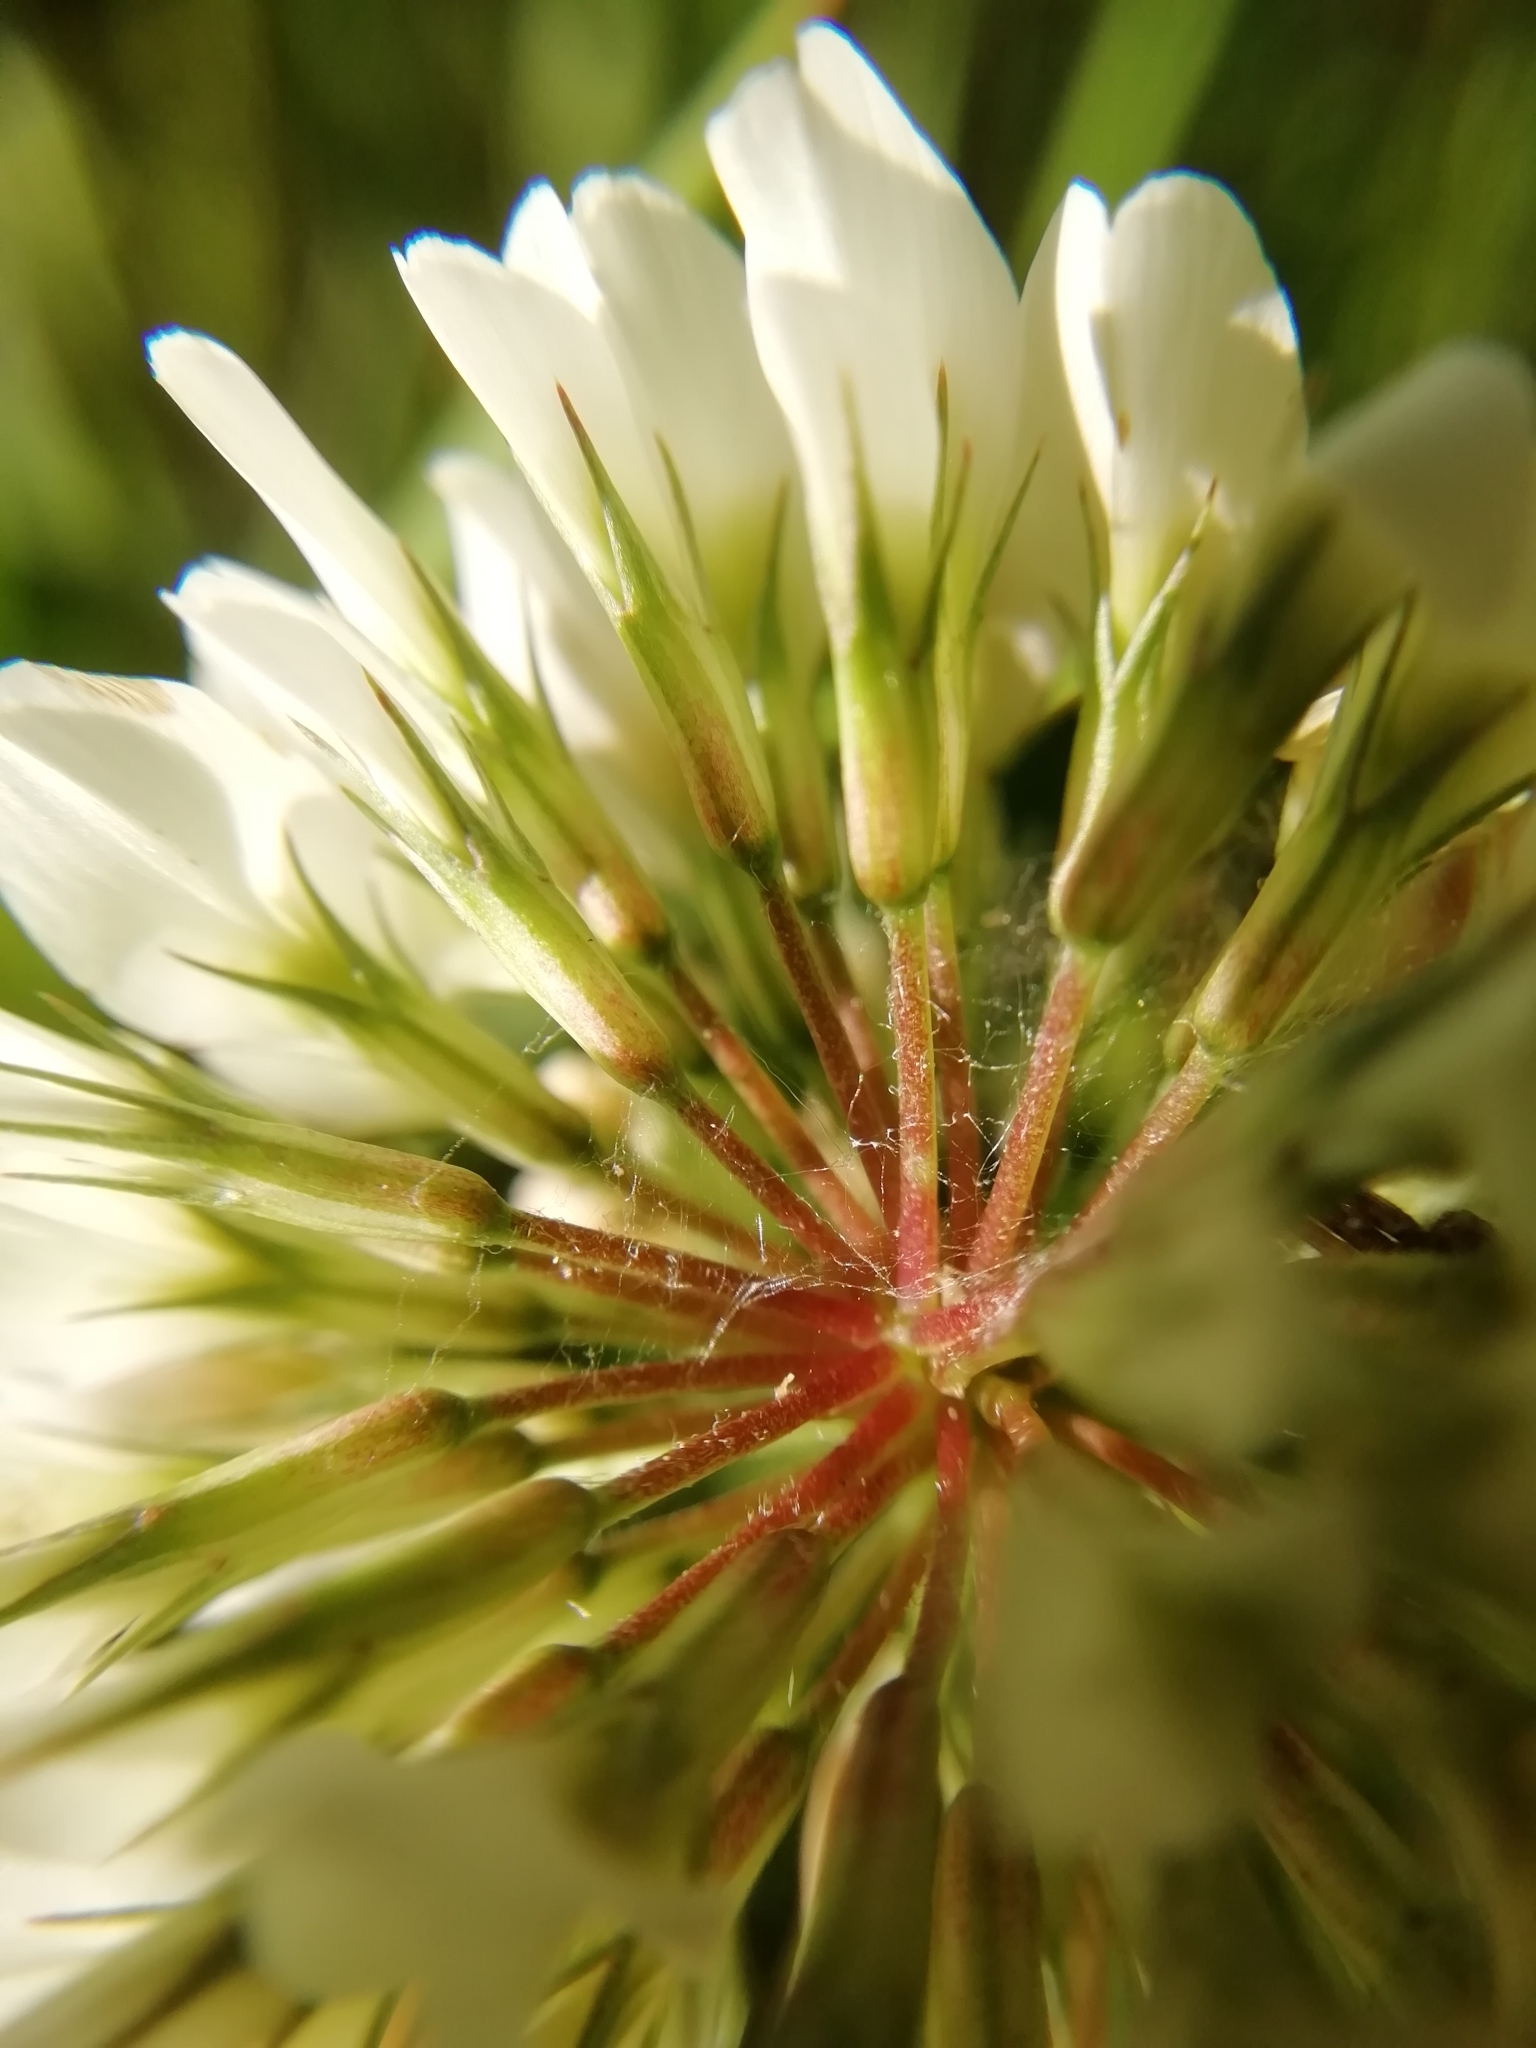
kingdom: Plantae
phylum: Tracheophyta
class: Magnoliopsida
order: Fabales
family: Fabaceae
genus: Trifolium
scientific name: Trifolium repens
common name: White clover
